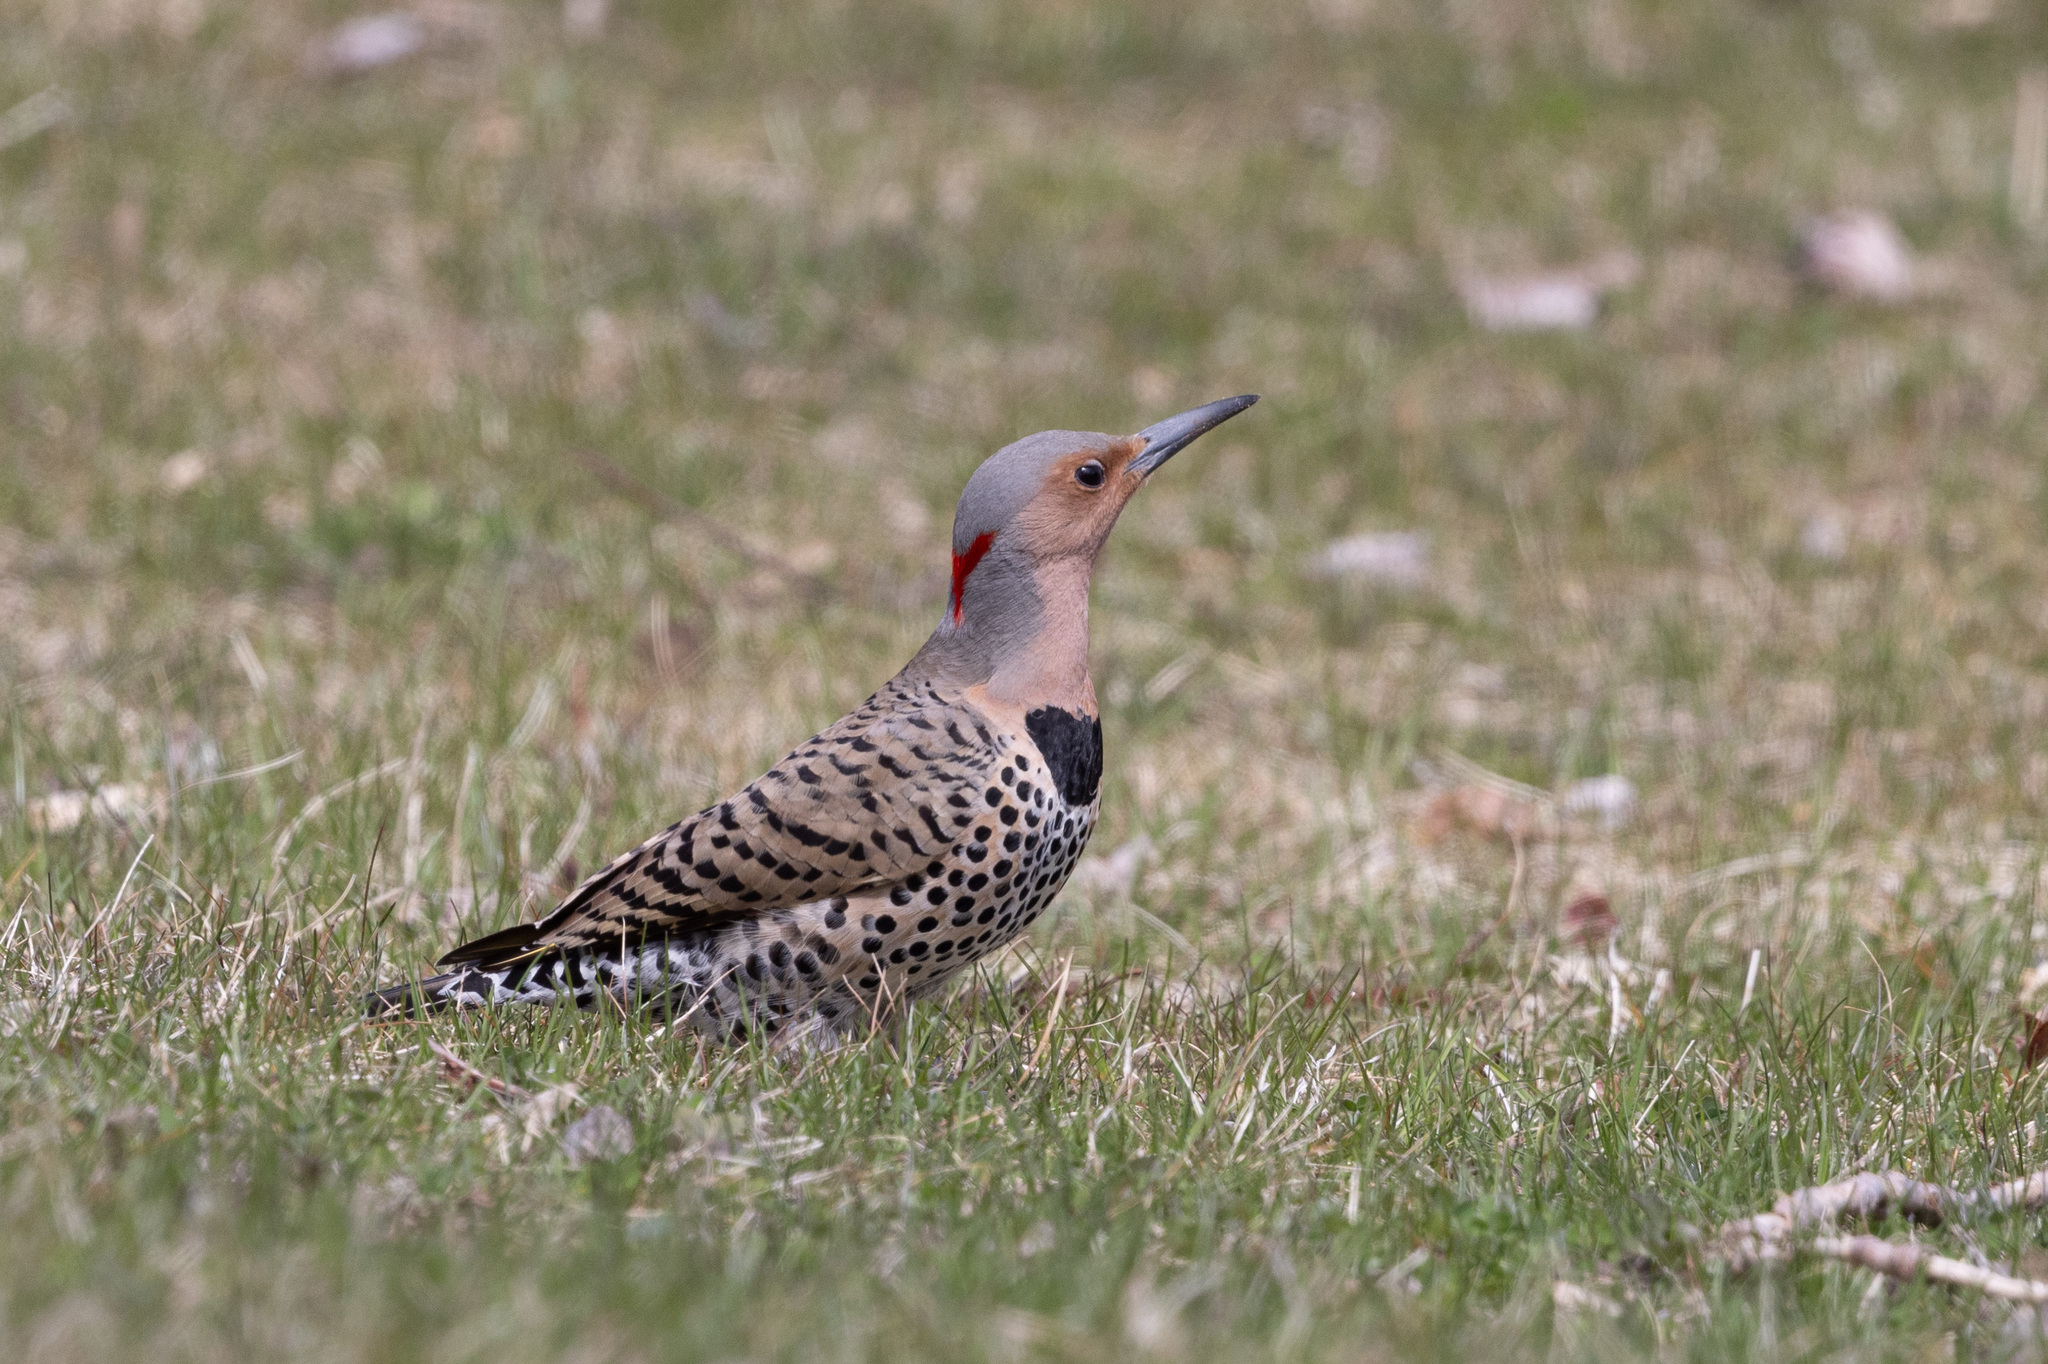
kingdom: Animalia
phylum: Chordata
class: Aves
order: Piciformes
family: Picidae
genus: Colaptes
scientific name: Colaptes auratus
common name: Northern flicker
